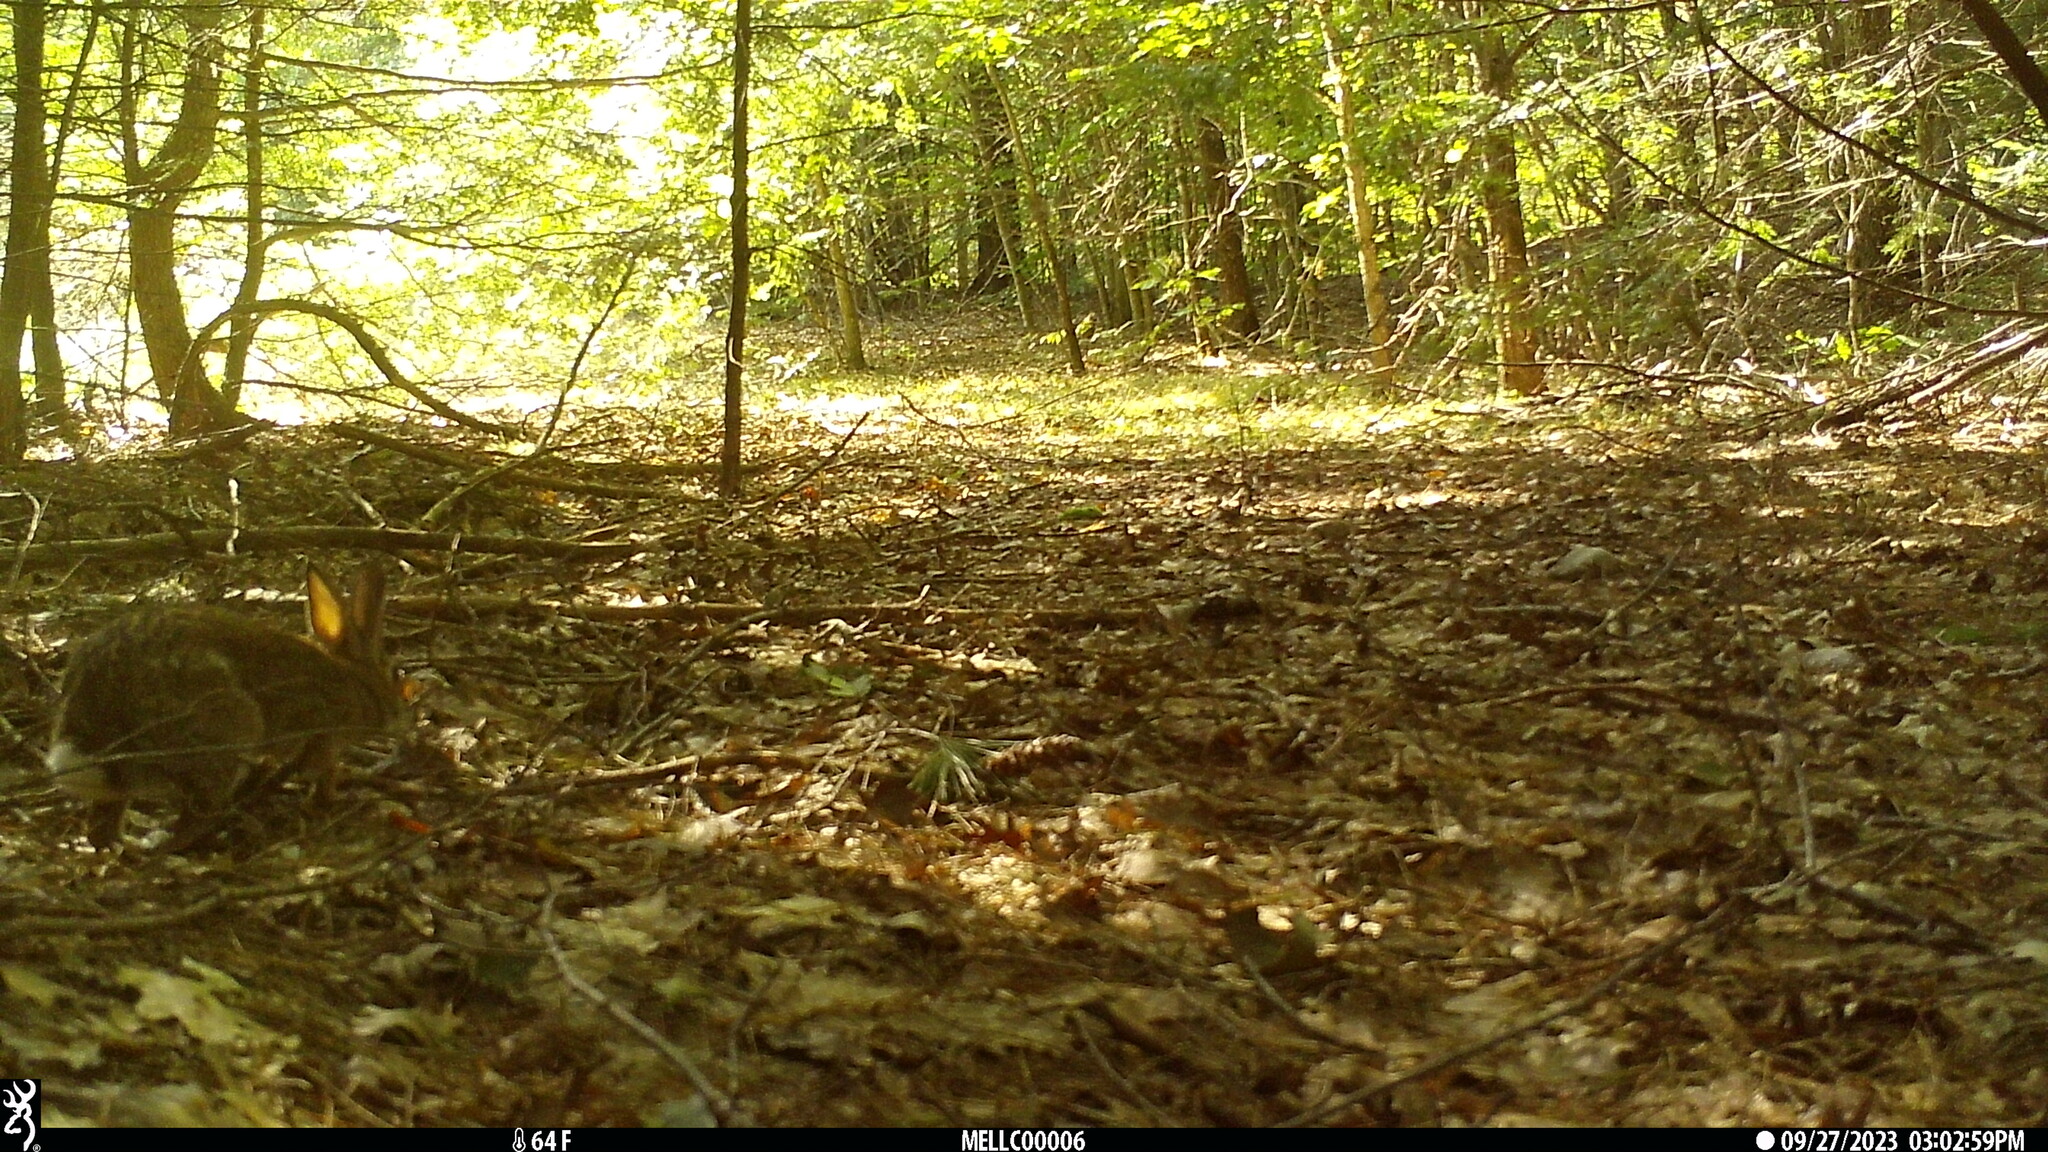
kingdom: Animalia
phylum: Chordata
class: Mammalia
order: Lagomorpha
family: Leporidae
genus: Sylvilagus
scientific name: Sylvilagus floridanus
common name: Eastern cottontail
